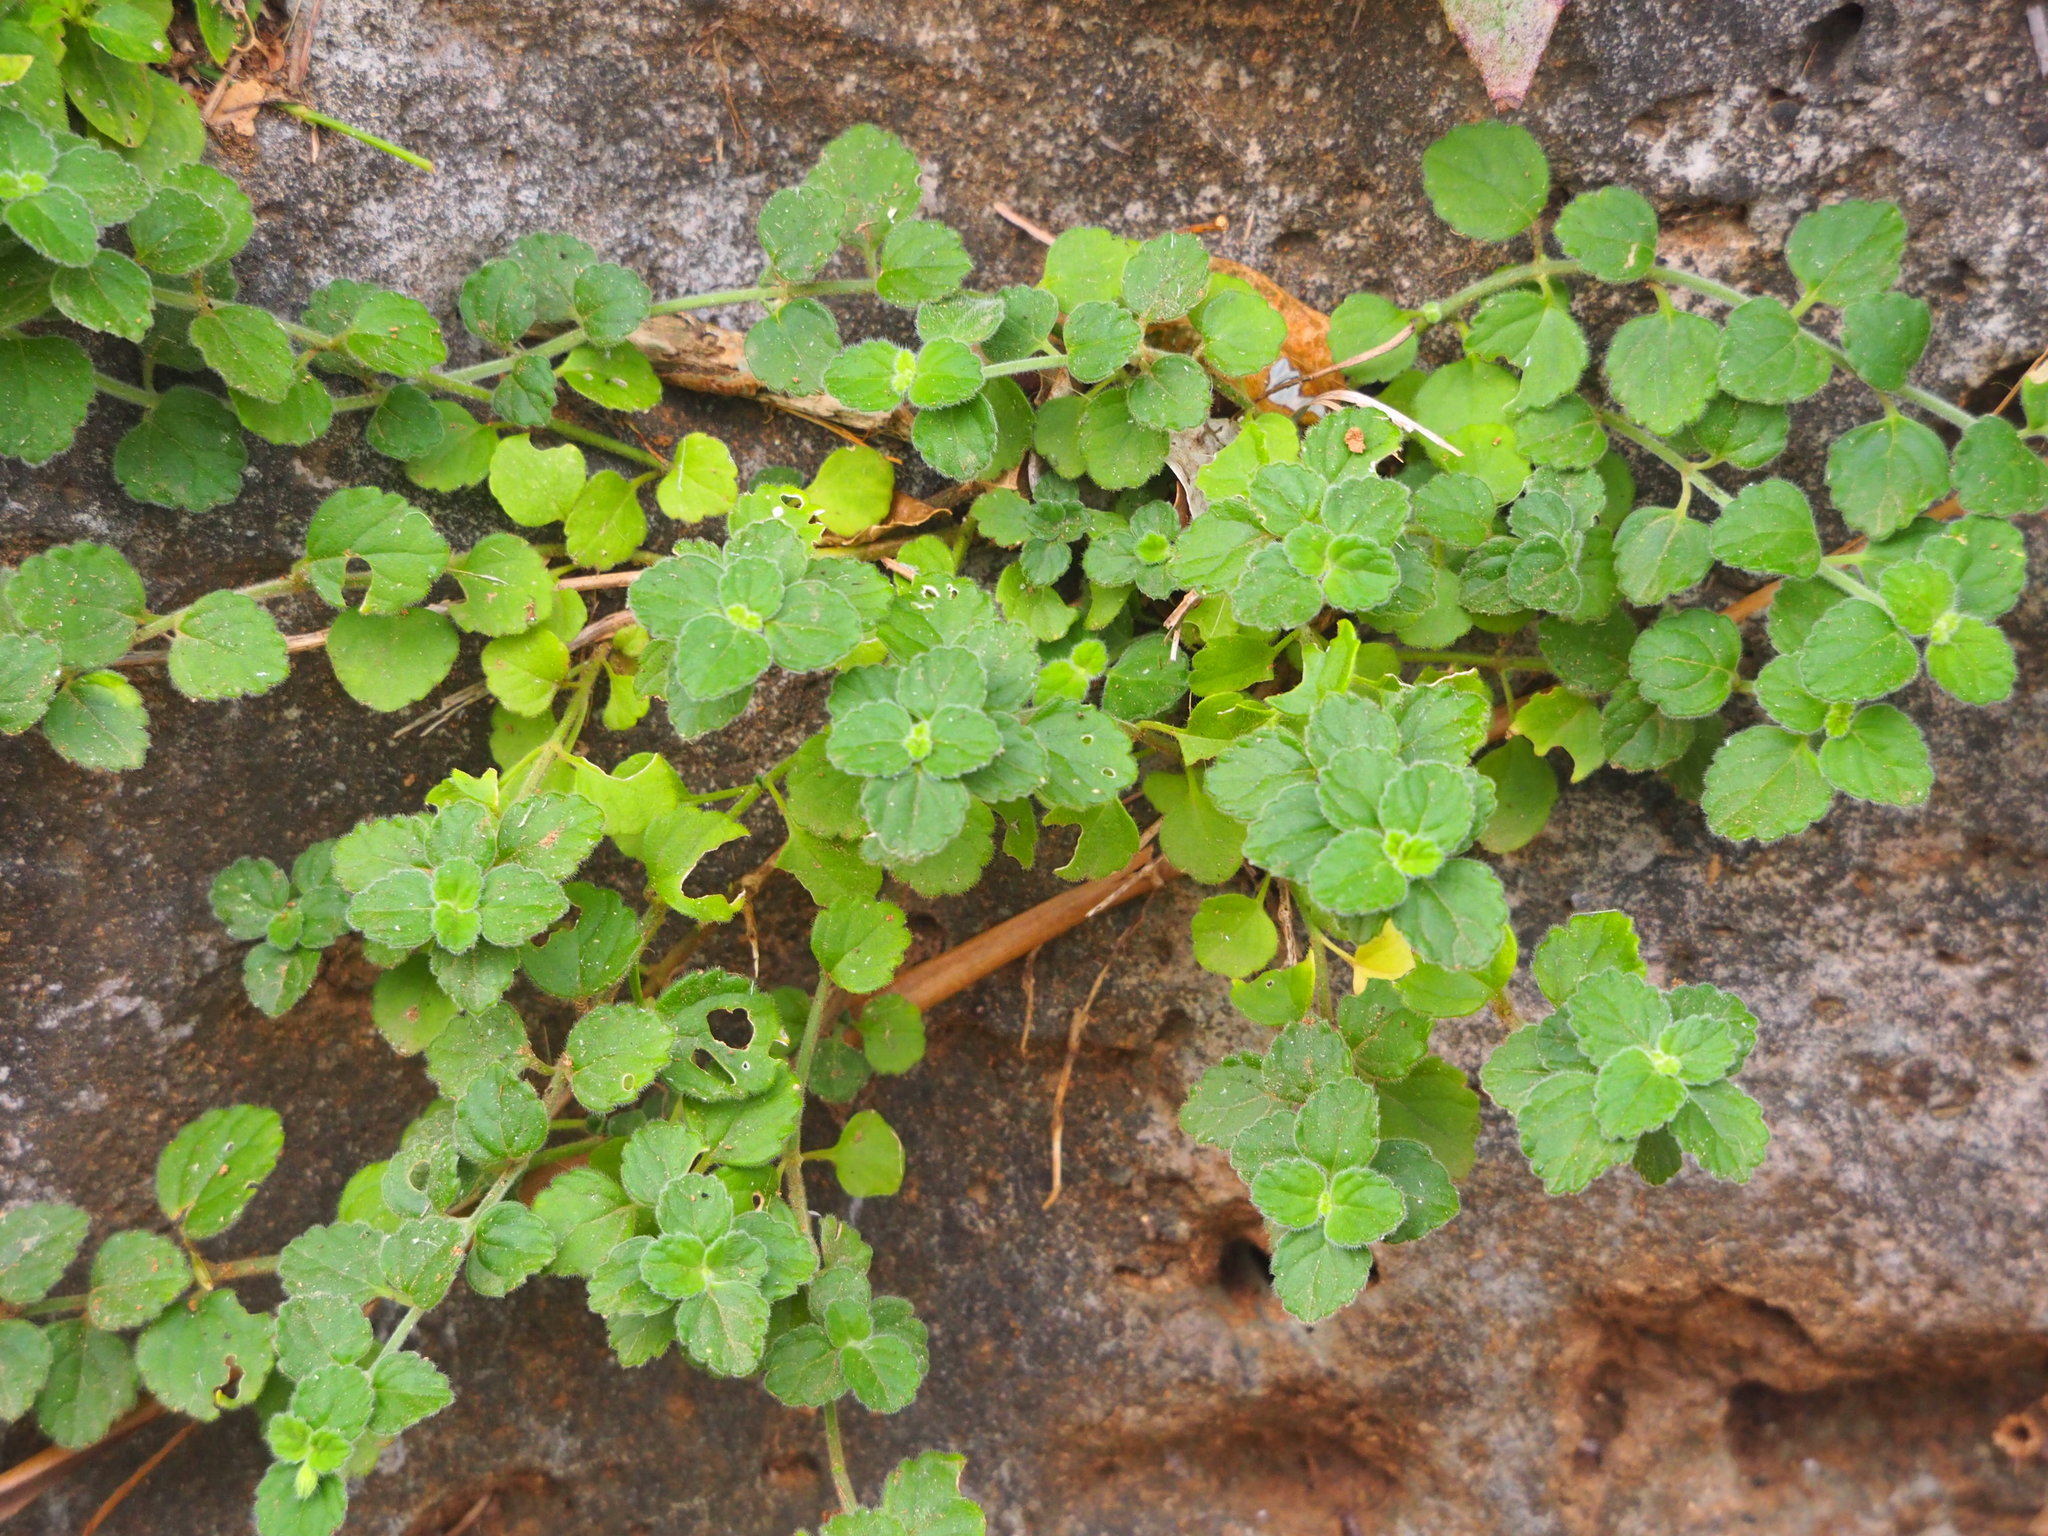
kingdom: Plantae
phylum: Tracheophyta
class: Magnoliopsida
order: Lamiales
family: Lamiaceae
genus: Leucas
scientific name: Leucas chinensis
